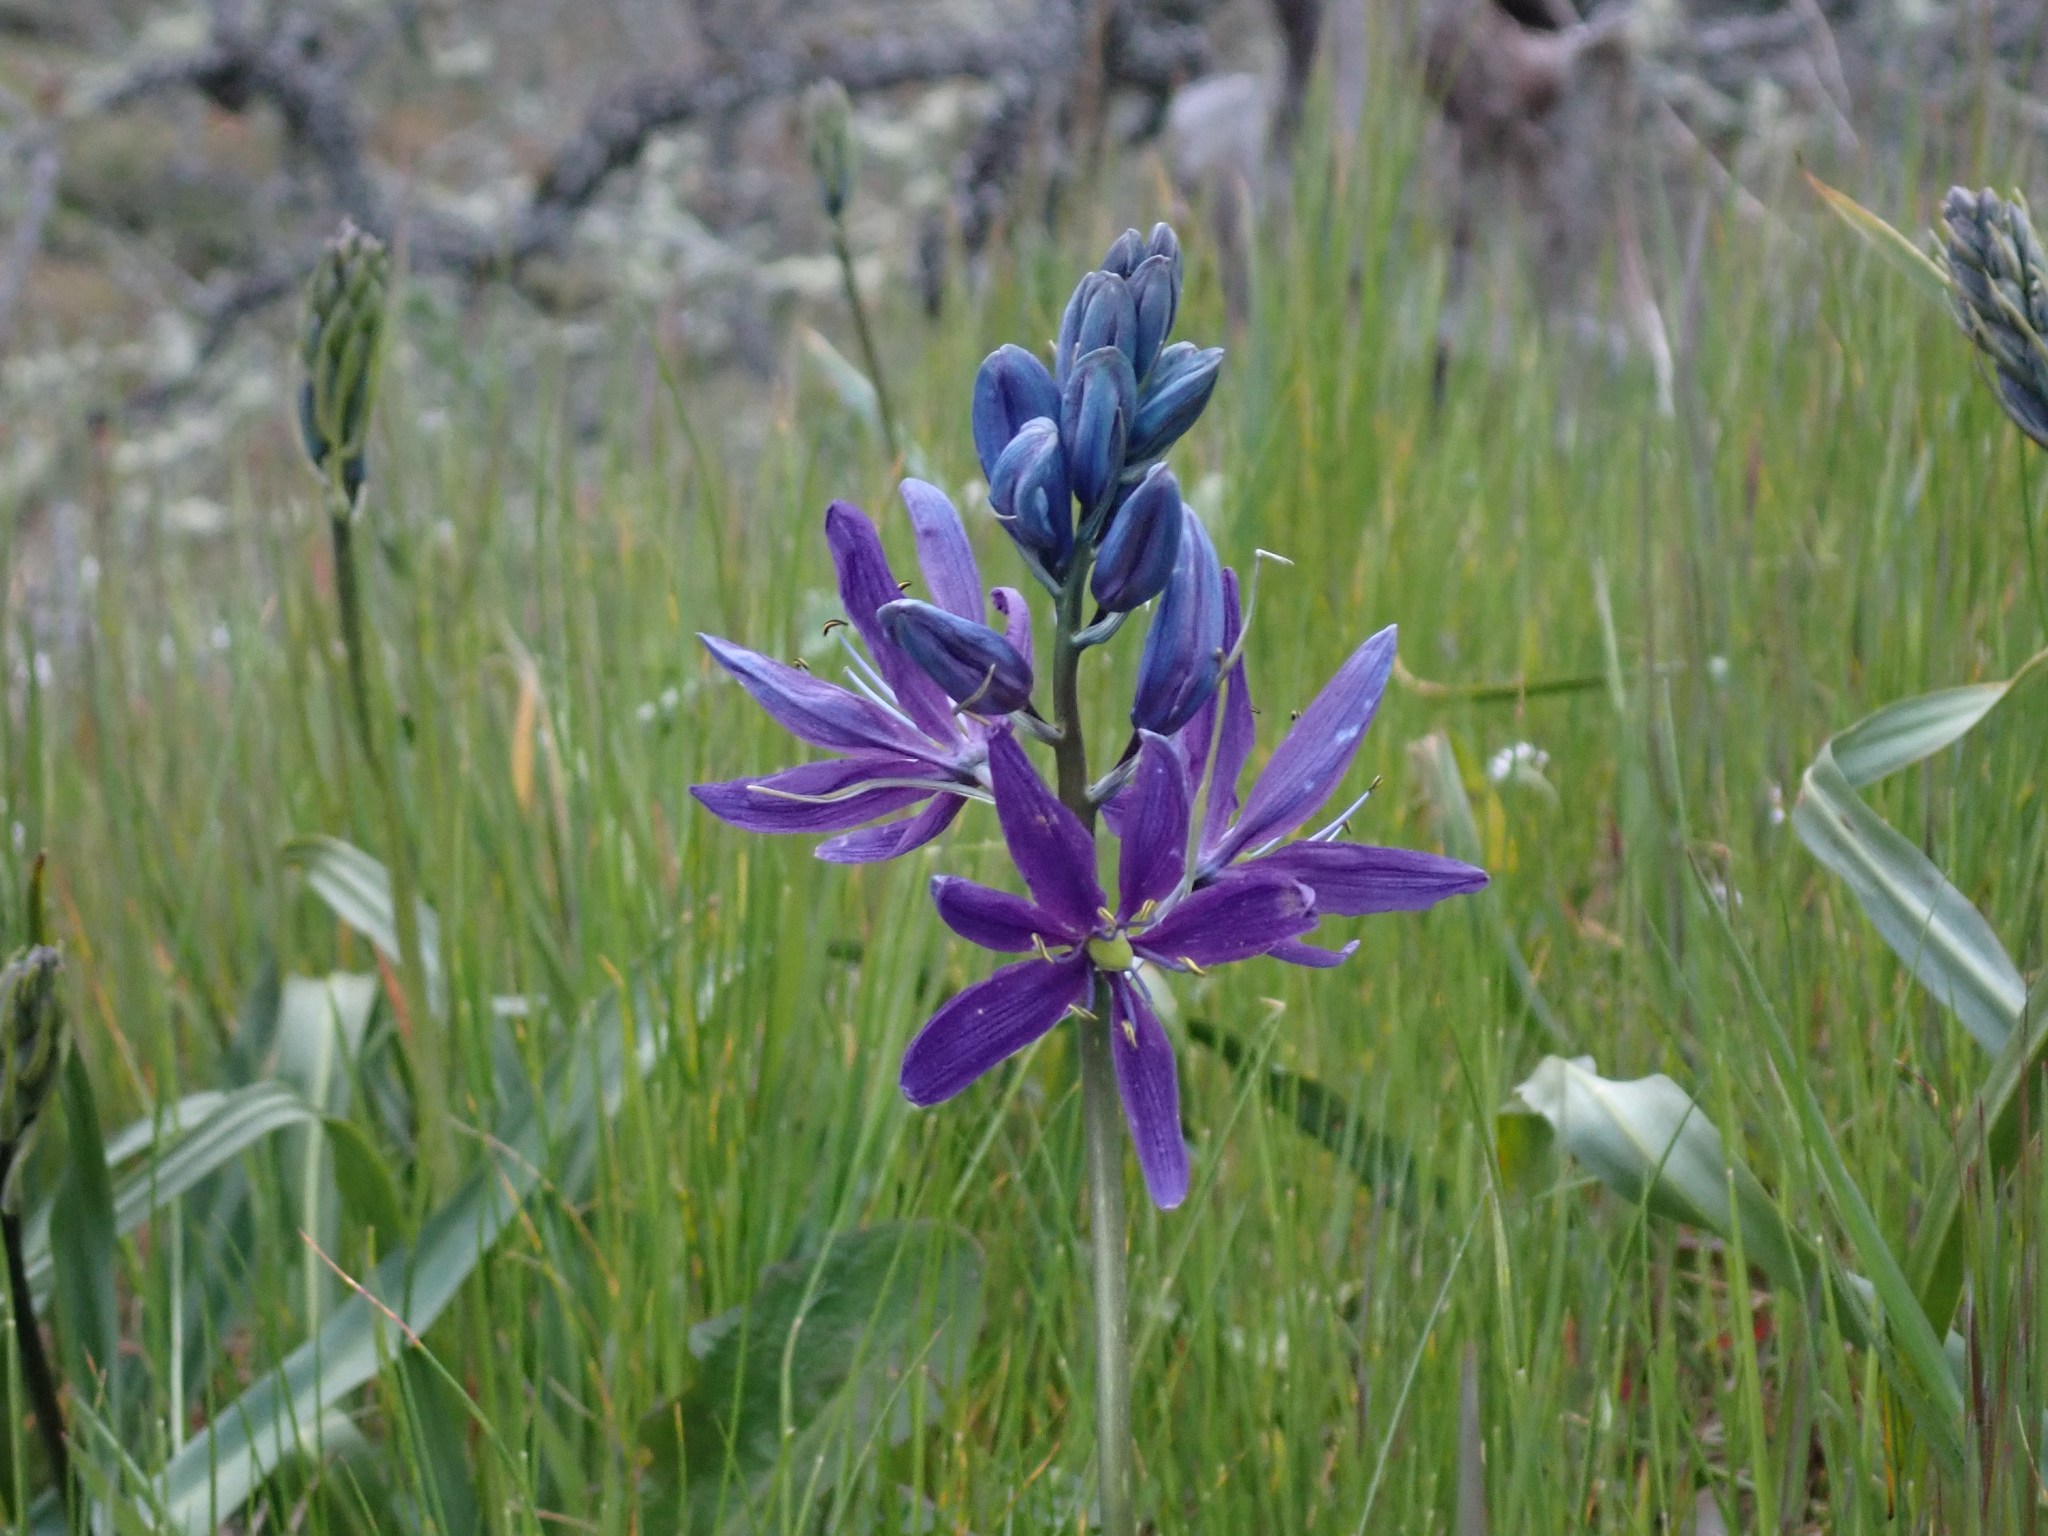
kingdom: Plantae
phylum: Tracheophyta
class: Liliopsida
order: Asparagales
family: Asparagaceae
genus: Camassia
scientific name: Camassia quamash
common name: Common camas
